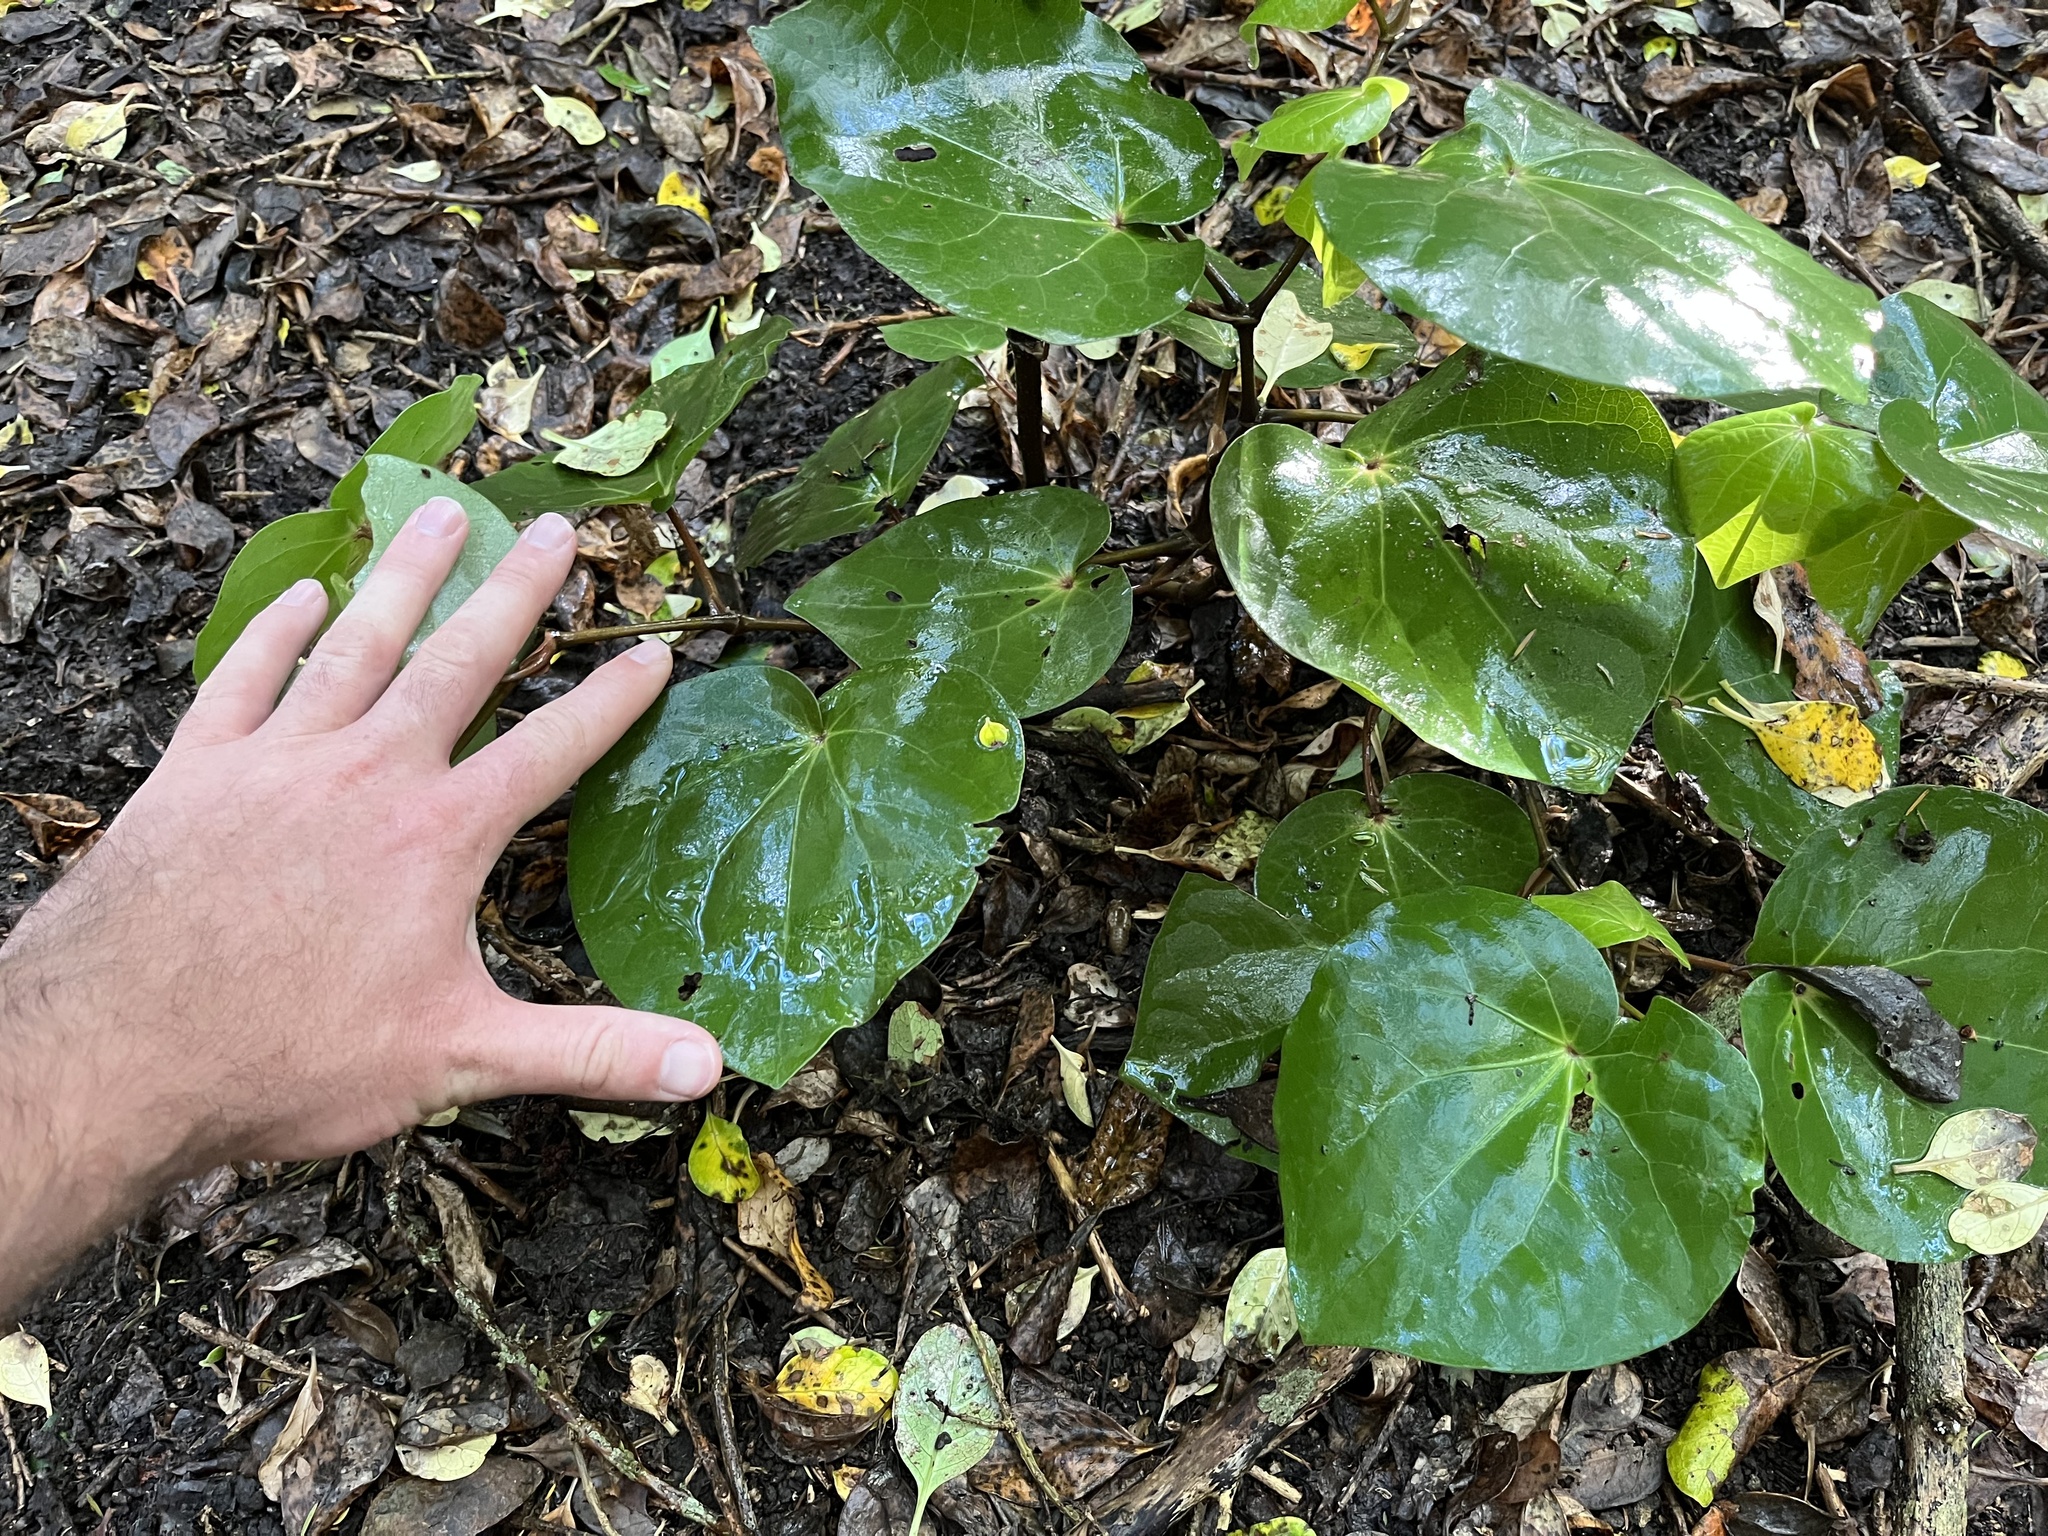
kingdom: Plantae
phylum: Tracheophyta
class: Magnoliopsida
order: Piperales
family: Piperaceae
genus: Macropiper
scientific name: Macropiper excelsum
